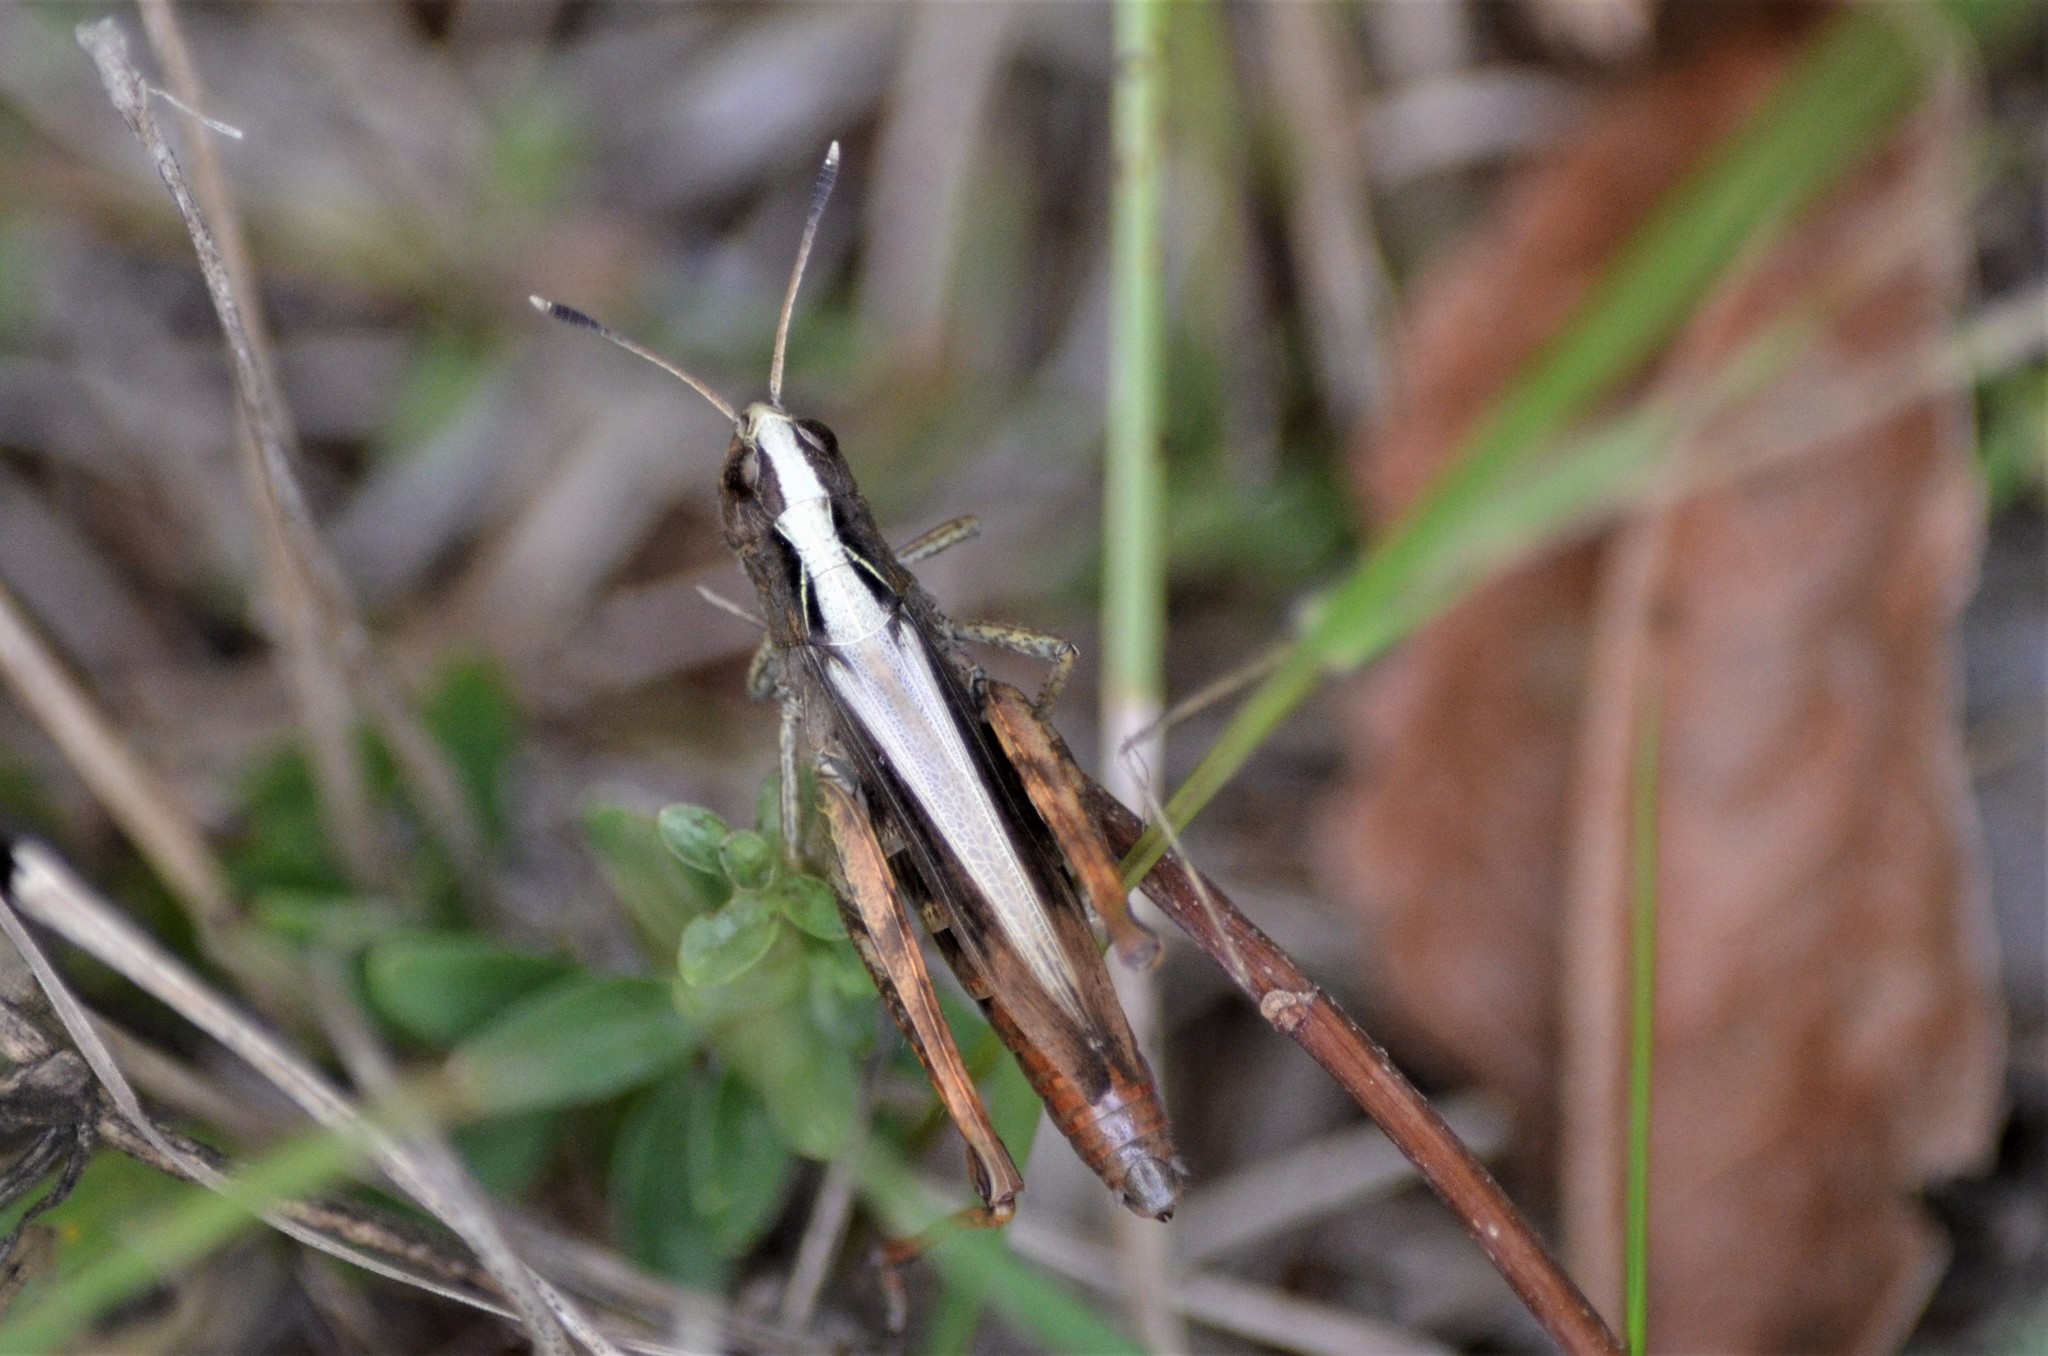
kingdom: Animalia
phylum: Arthropoda
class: Insecta
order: Orthoptera
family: Acrididae
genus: Gomphocerippus
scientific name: Gomphocerippus rufus
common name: Rufous grasshopper
